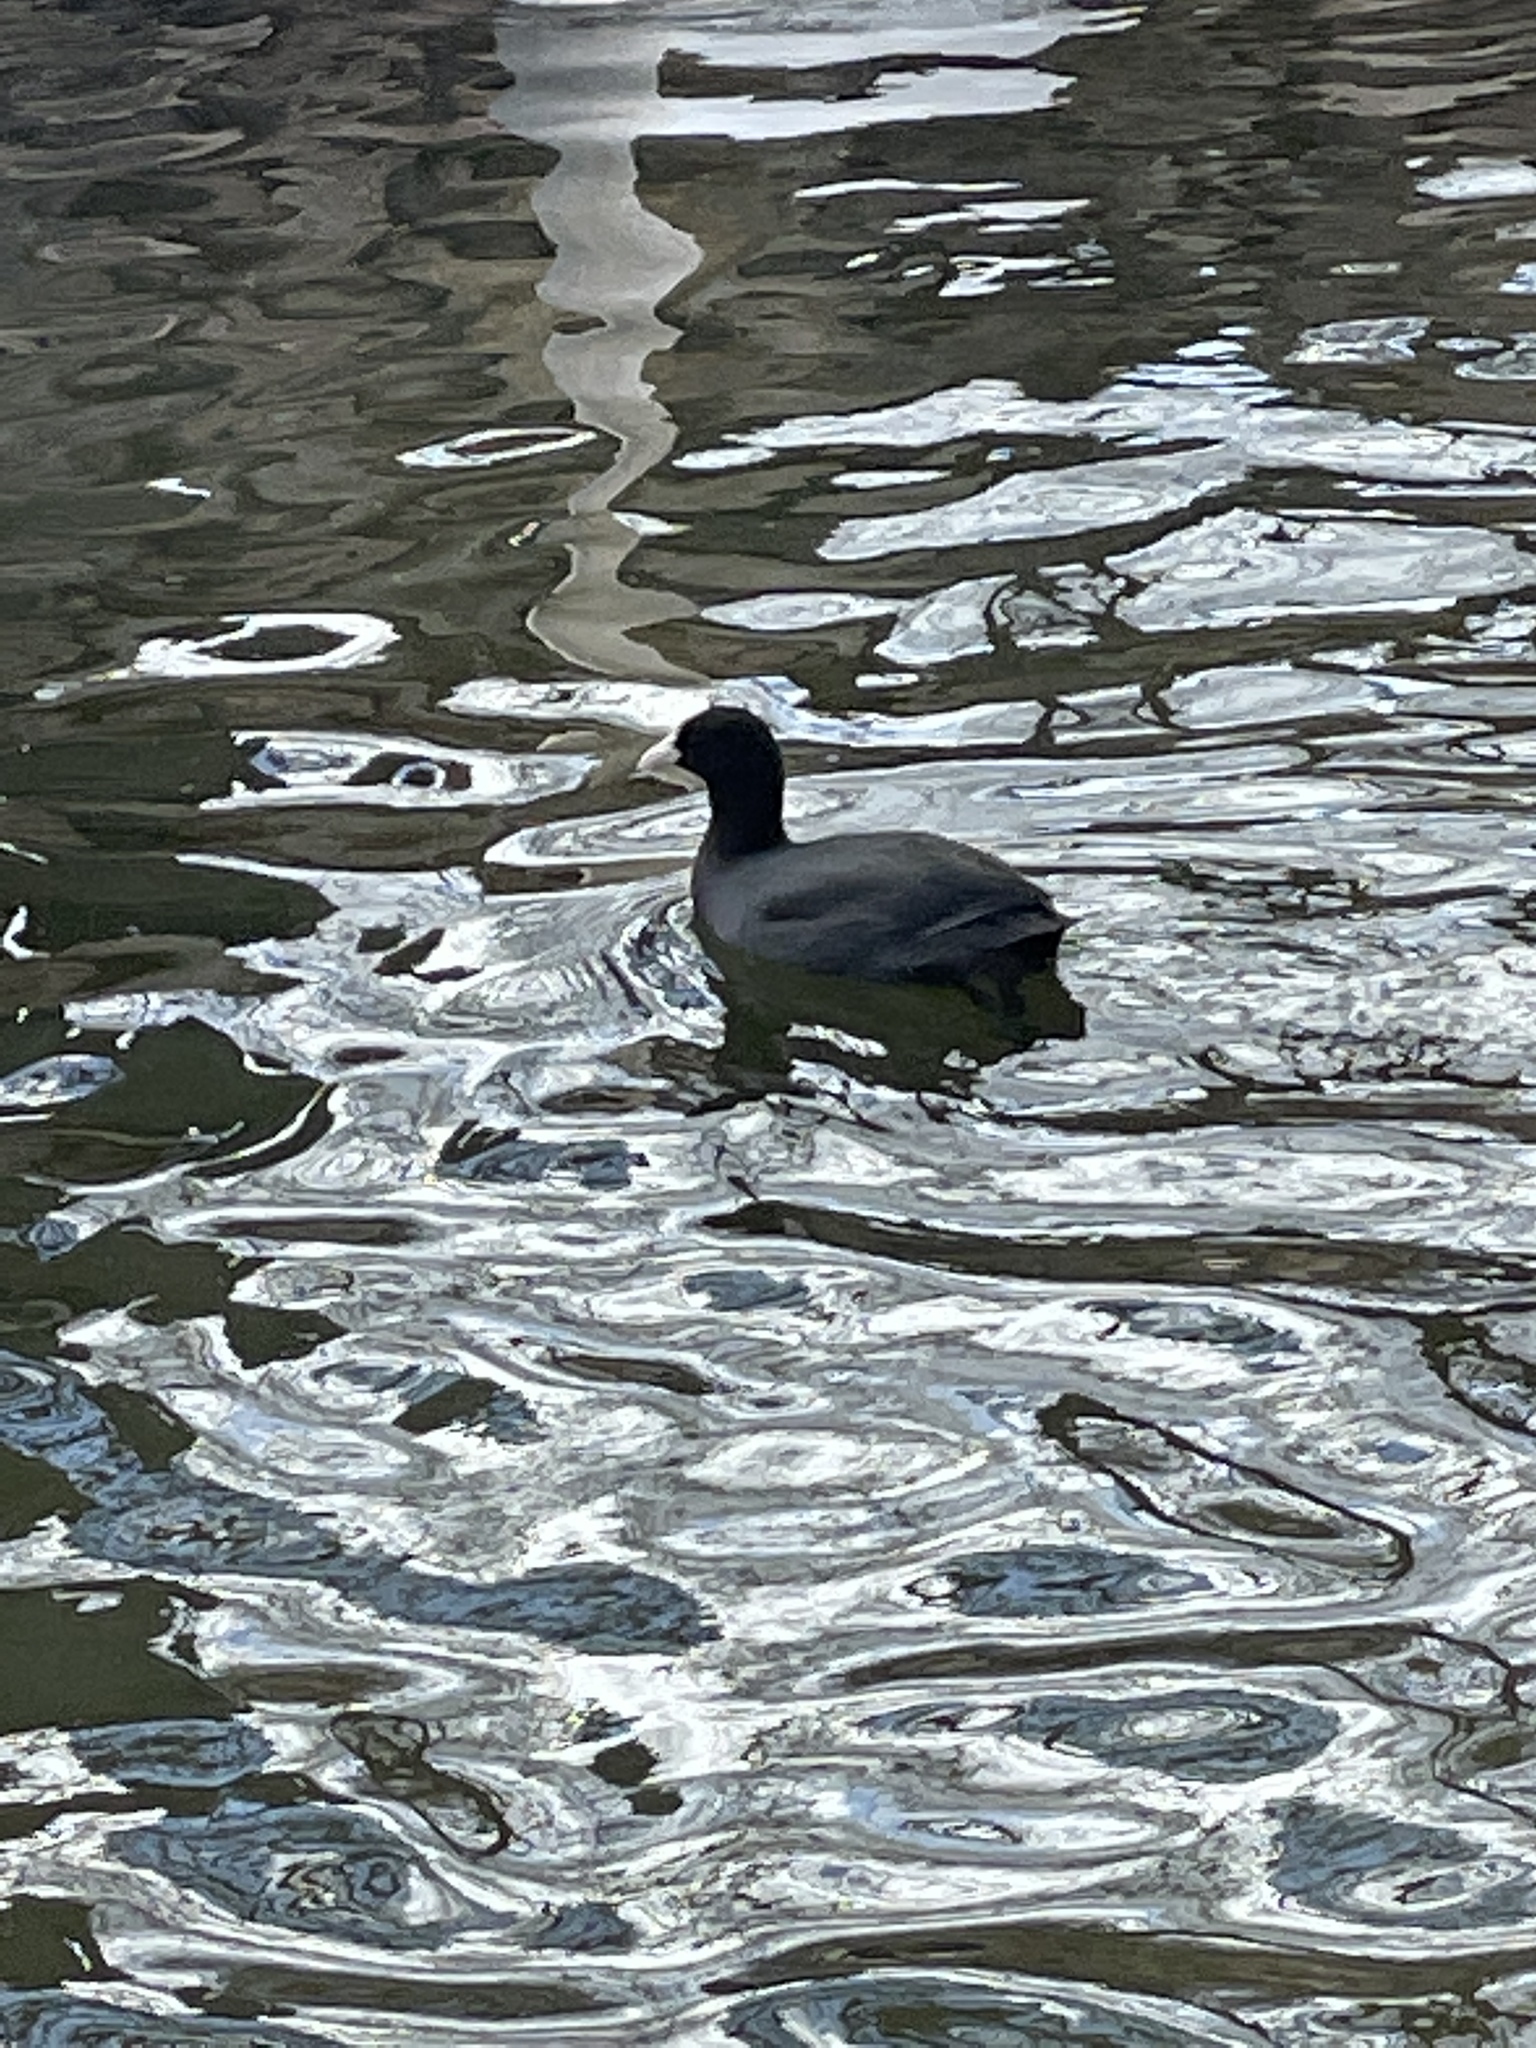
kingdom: Animalia
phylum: Chordata
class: Aves
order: Gruiformes
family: Rallidae
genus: Fulica
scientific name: Fulica atra
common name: Eurasian coot
